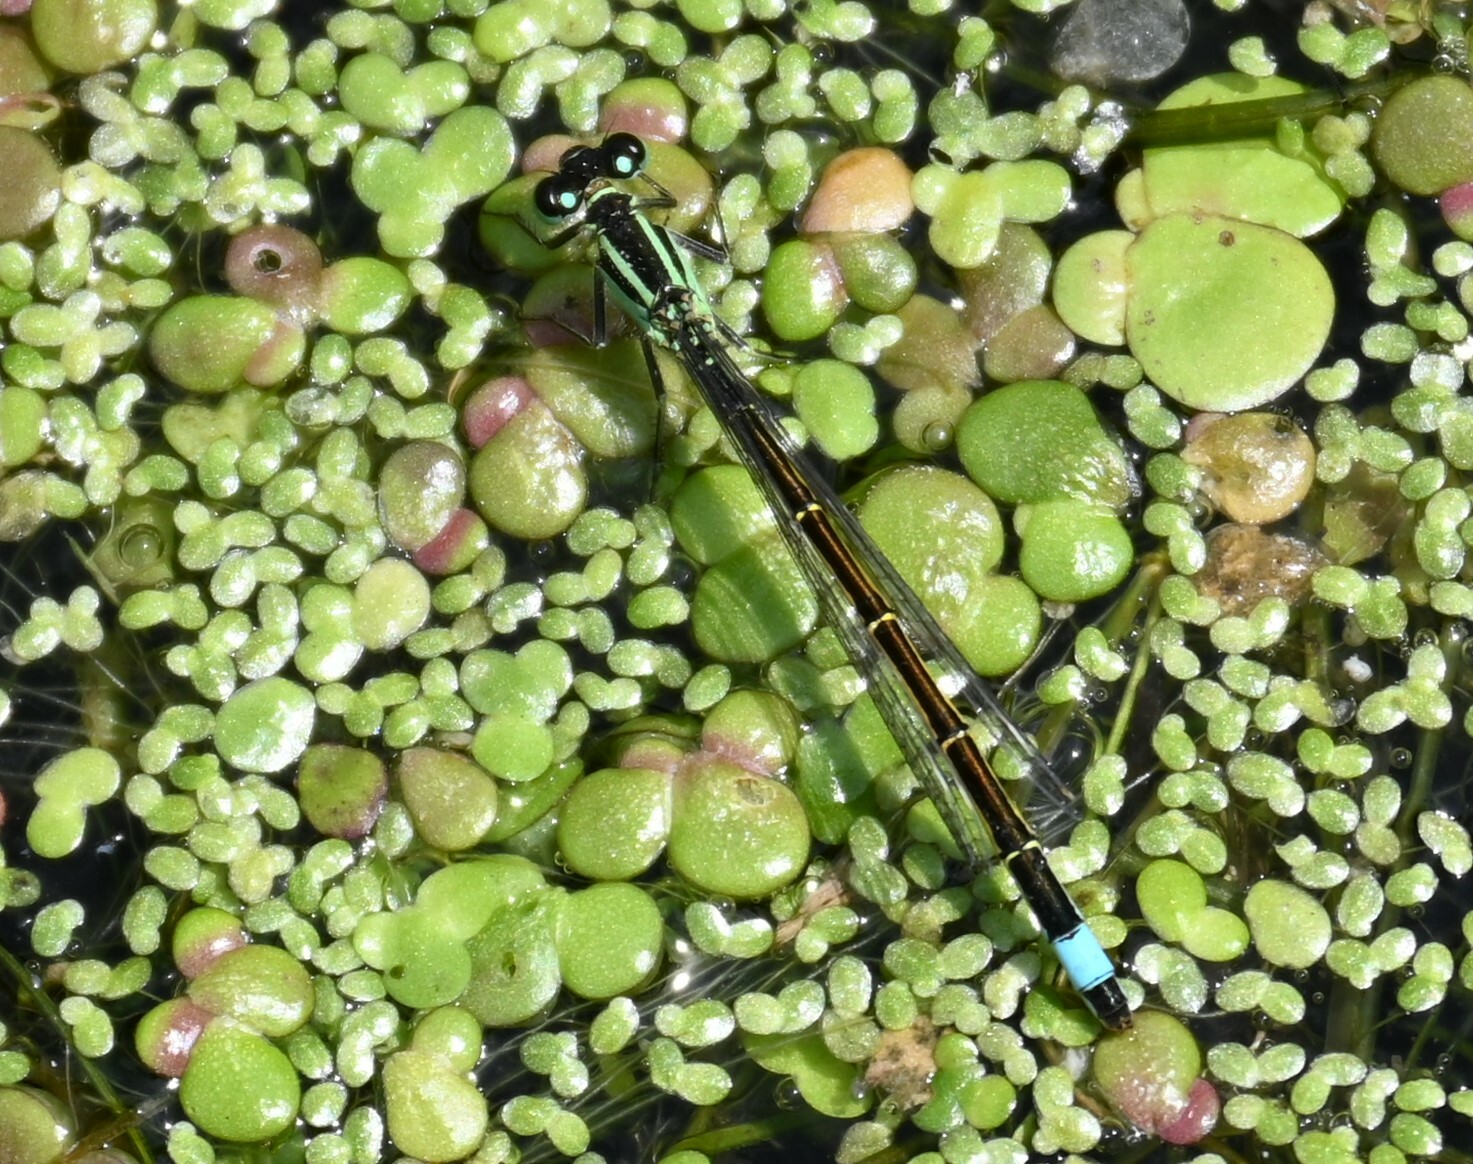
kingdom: Animalia
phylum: Arthropoda
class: Insecta
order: Odonata
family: Coenagrionidae
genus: Ischnura
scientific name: Ischnura elegans
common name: Blue-tailed damselfly
